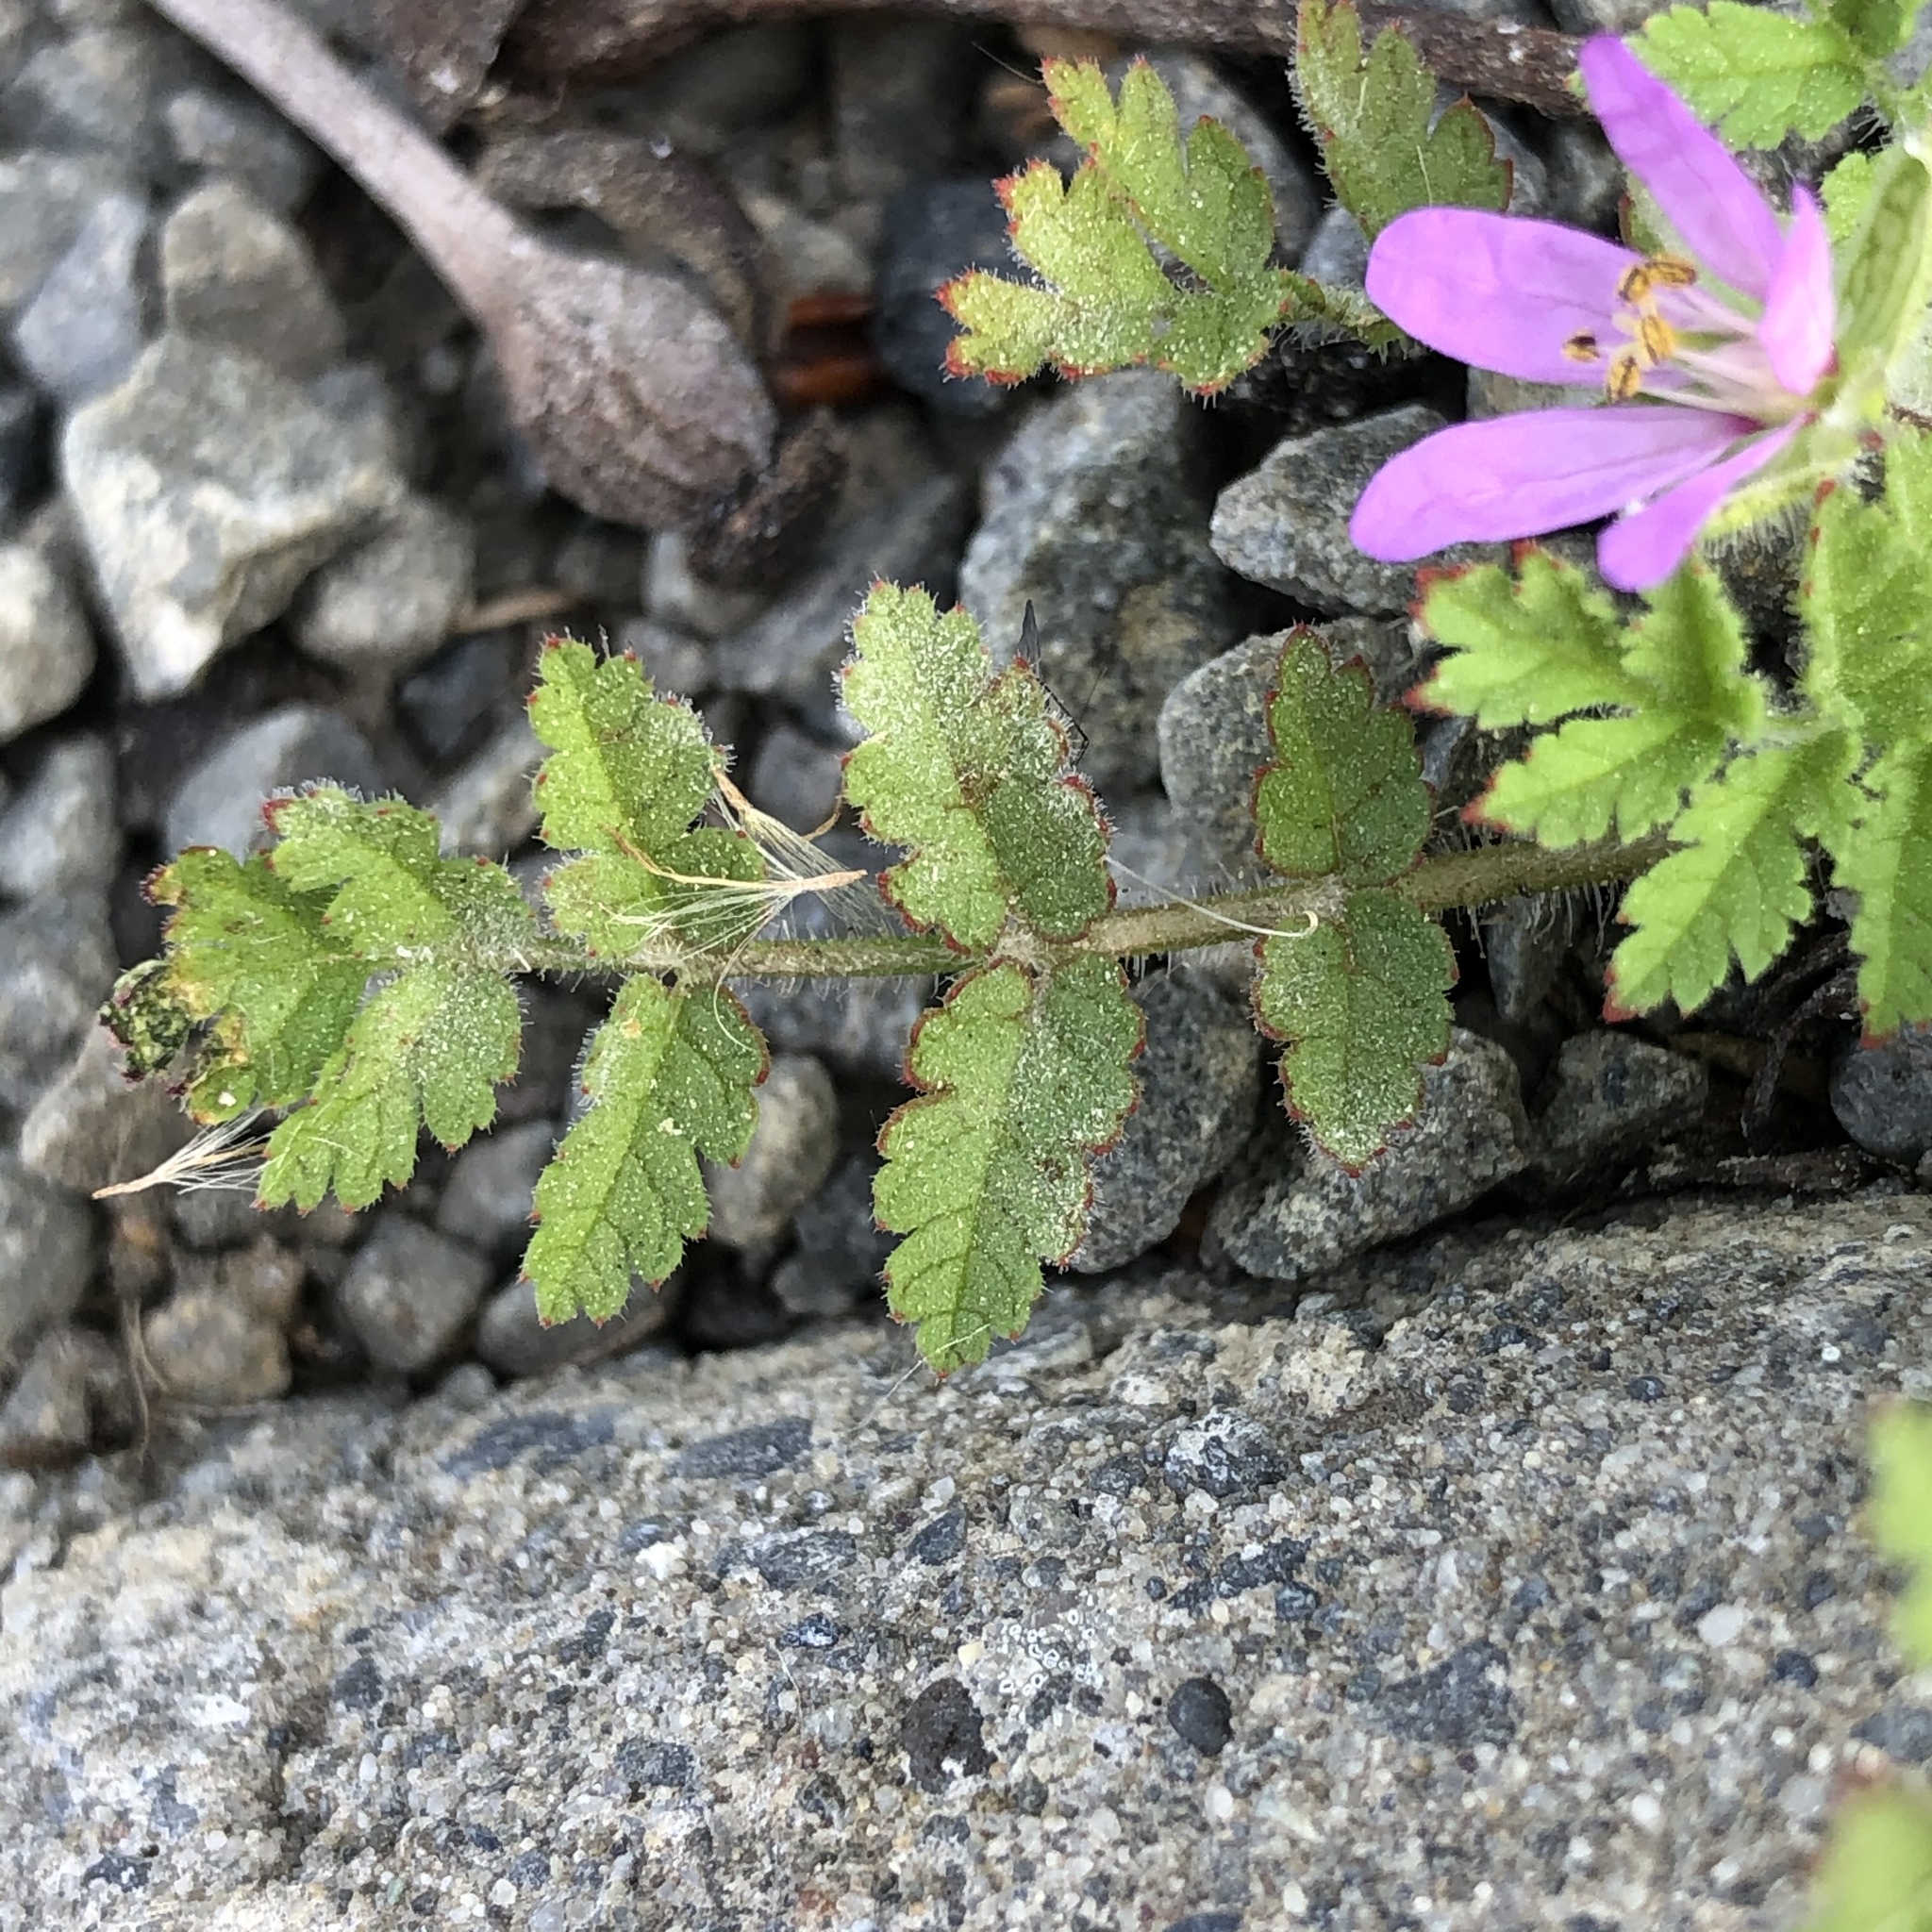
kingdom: Plantae
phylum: Tracheophyta
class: Magnoliopsida
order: Geraniales
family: Geraniaceae
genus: Erodium
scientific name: Erodium moschatum
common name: Musk stork's-bill
